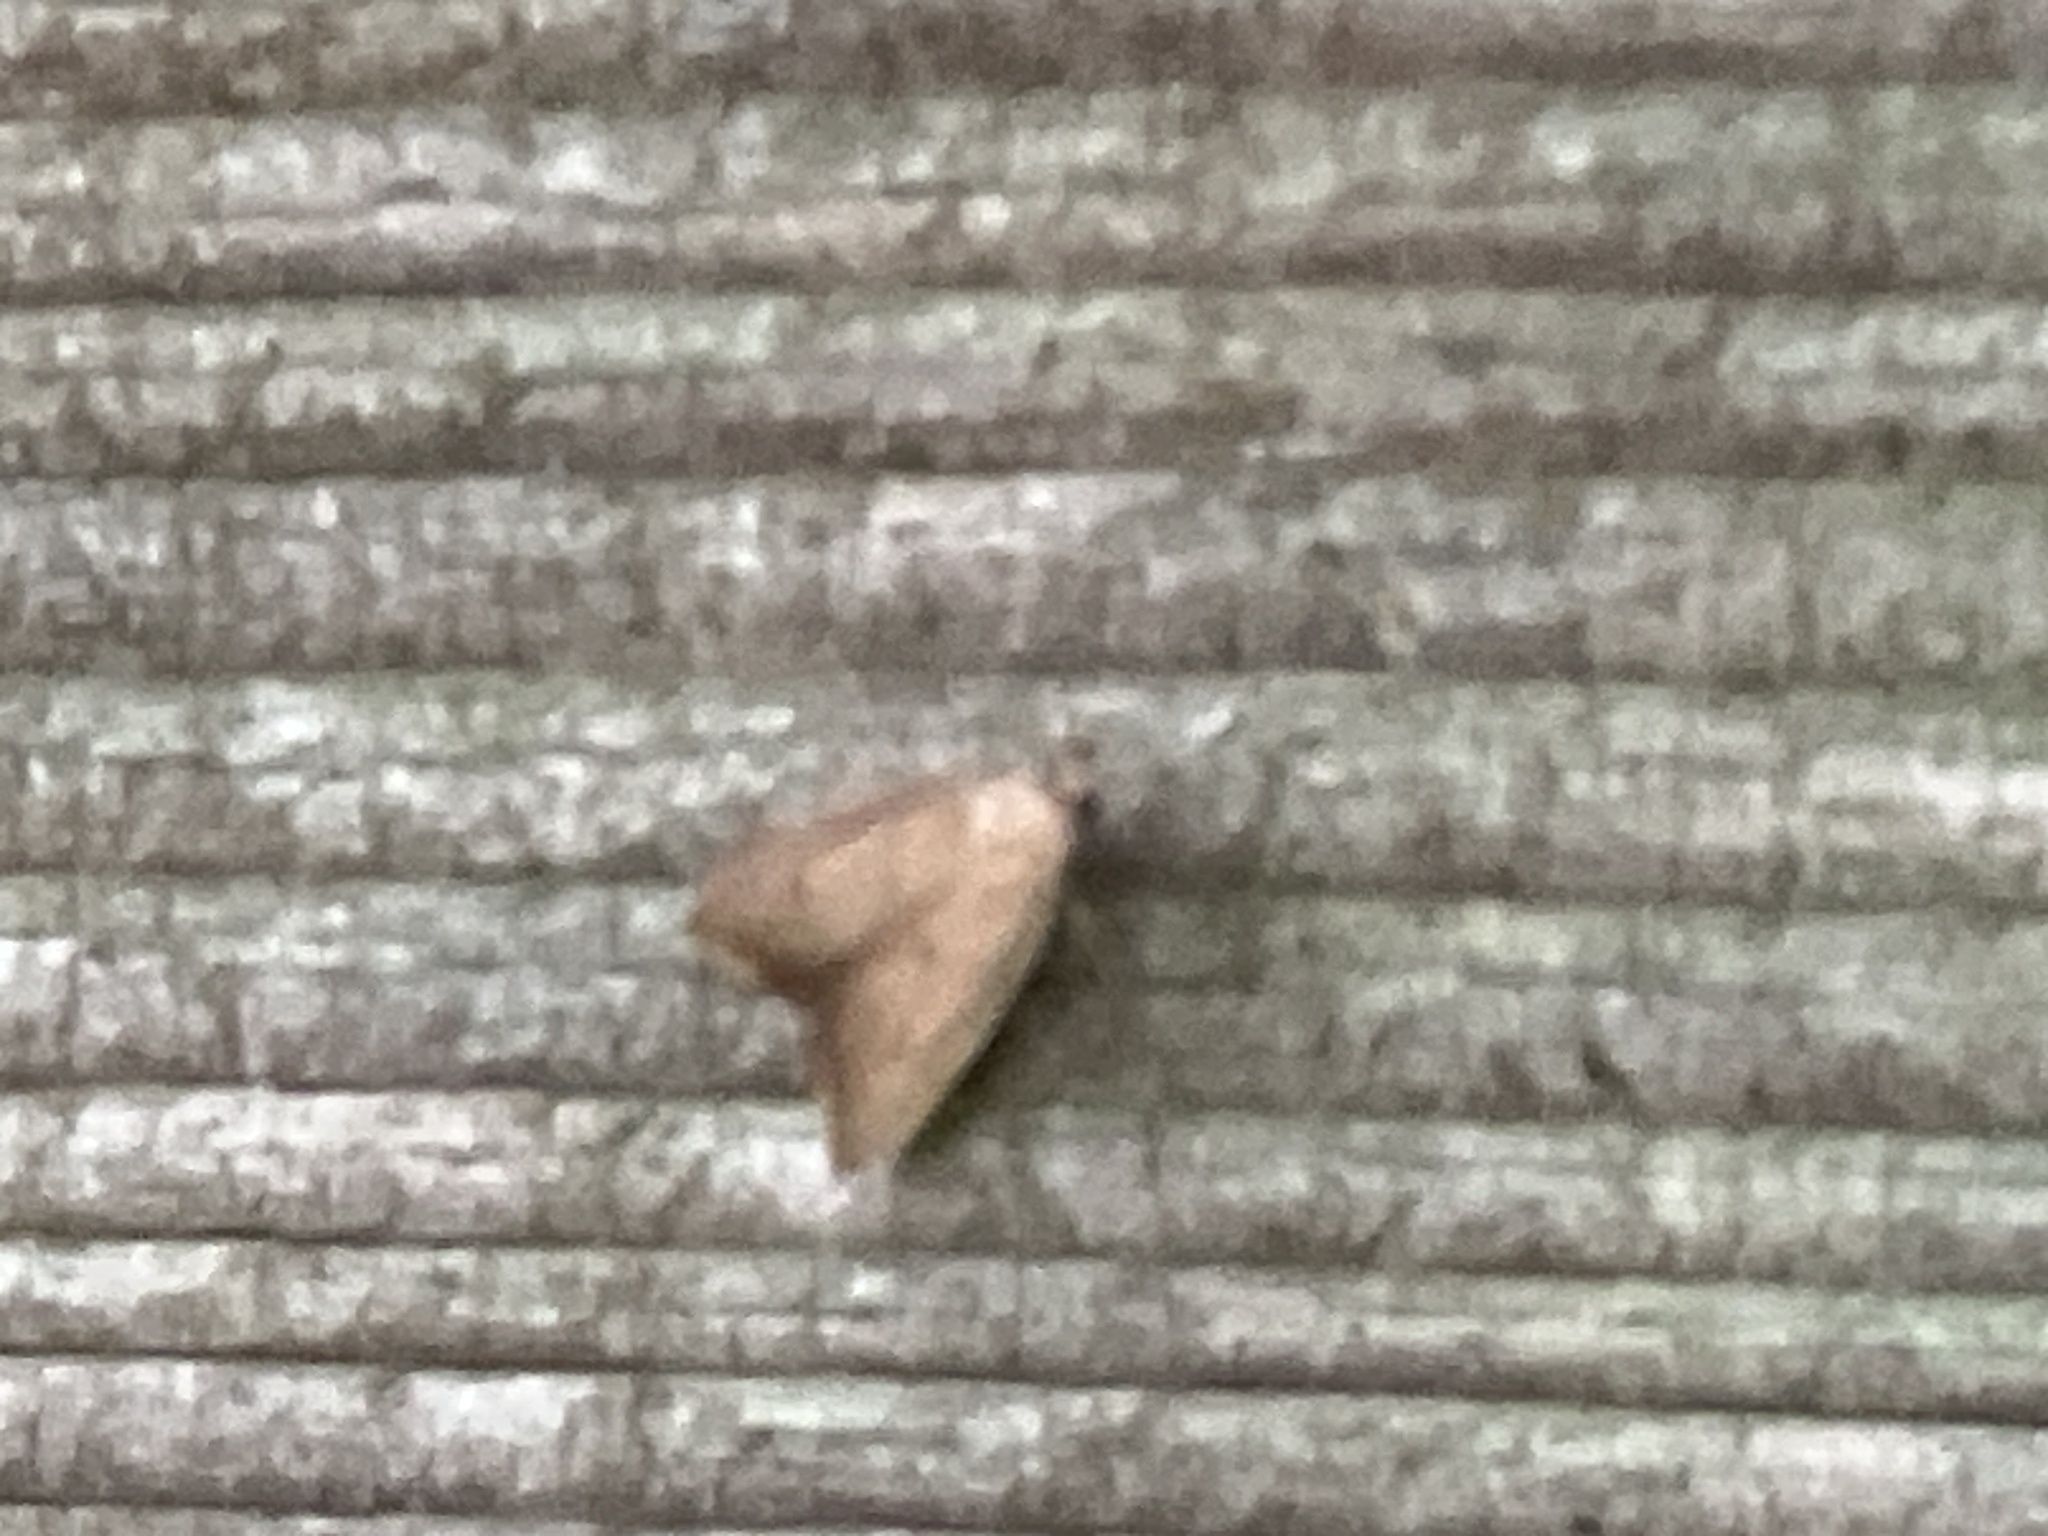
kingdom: Animalia
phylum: Arthropoda
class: Insecta
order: Lepidoptera
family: Oecophoridae
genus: Tachystola
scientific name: Tachystola acroxantha
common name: Ruddy streak
